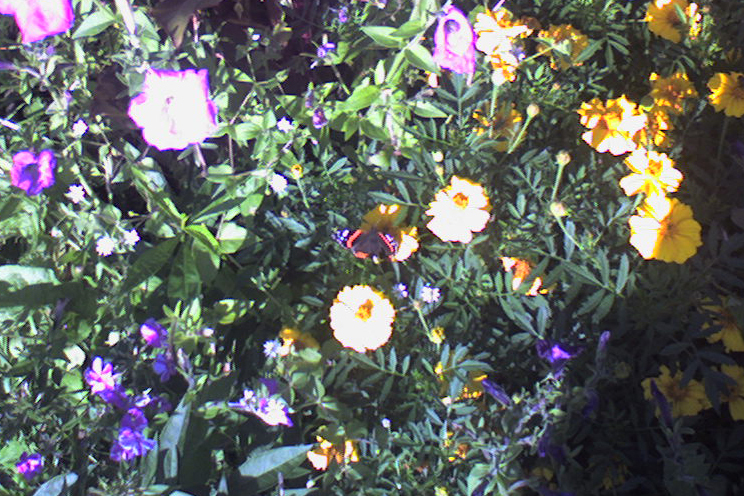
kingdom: Animalia
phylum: Arthropoda
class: Insecta
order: Lepidoptera
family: Nymphalidae
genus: Vanessa
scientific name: Vanessa atalanta
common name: Red admiral
